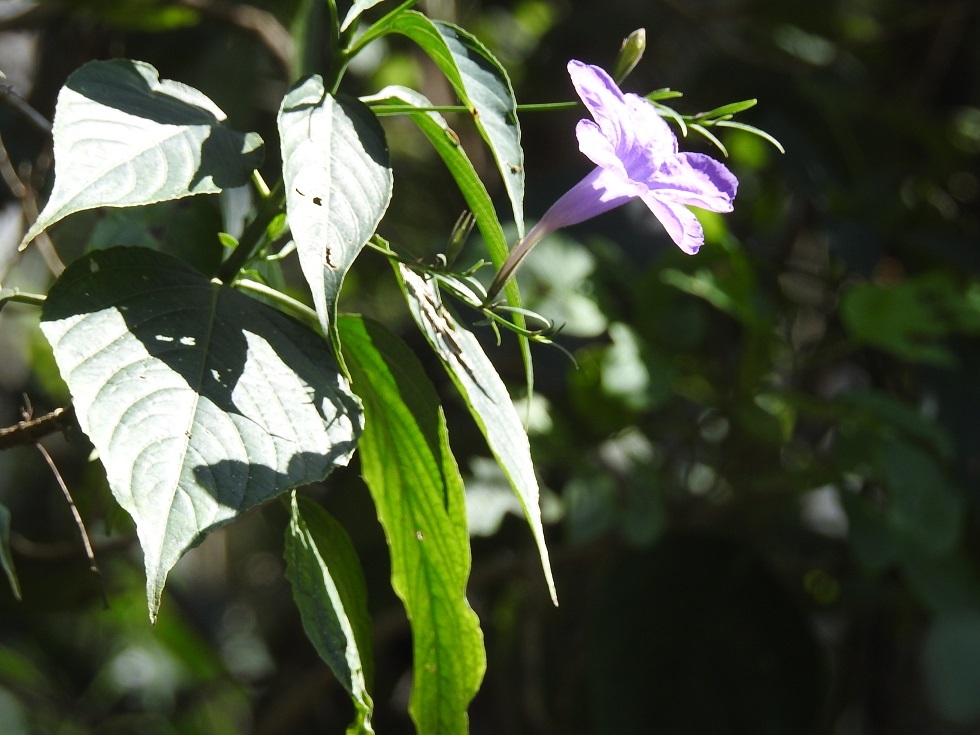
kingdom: Plantae
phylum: Tracheophyta
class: Magnoliopsida
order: Lamiales
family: Acanthaceae
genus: Ruellia
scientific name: Ruellia breedlovei
